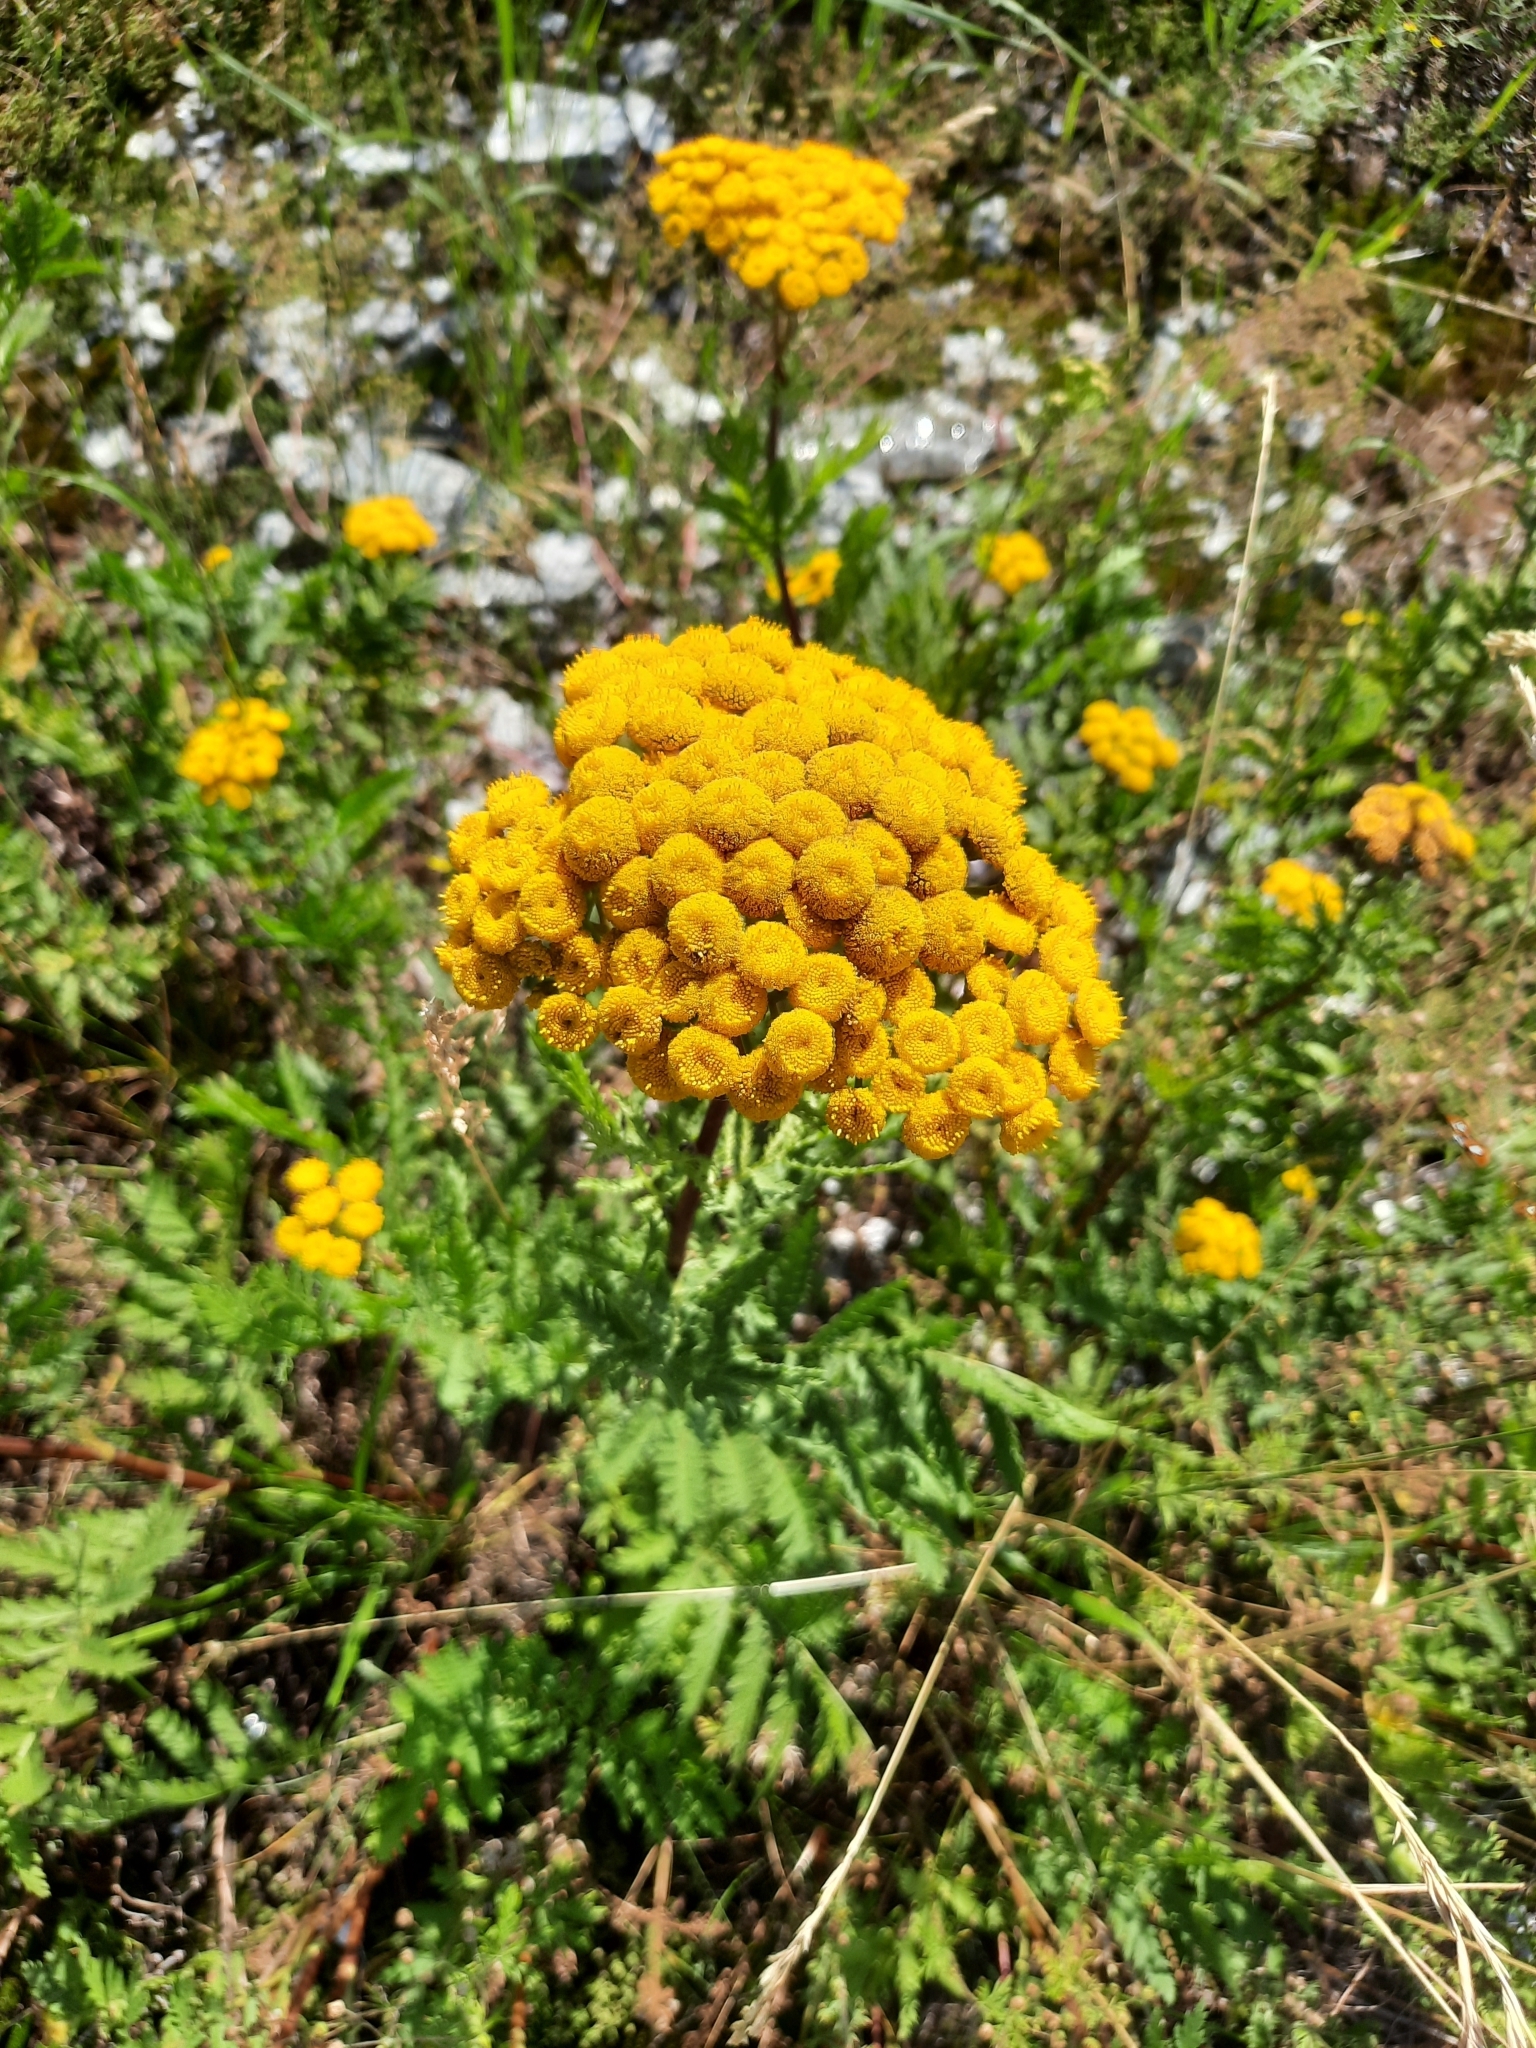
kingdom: Plantae
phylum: Tracheophyta
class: Magnoliopsida
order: Asterales
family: Asteraceae
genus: Tanacetum
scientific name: Tanacetum vulgare
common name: Common tansy
